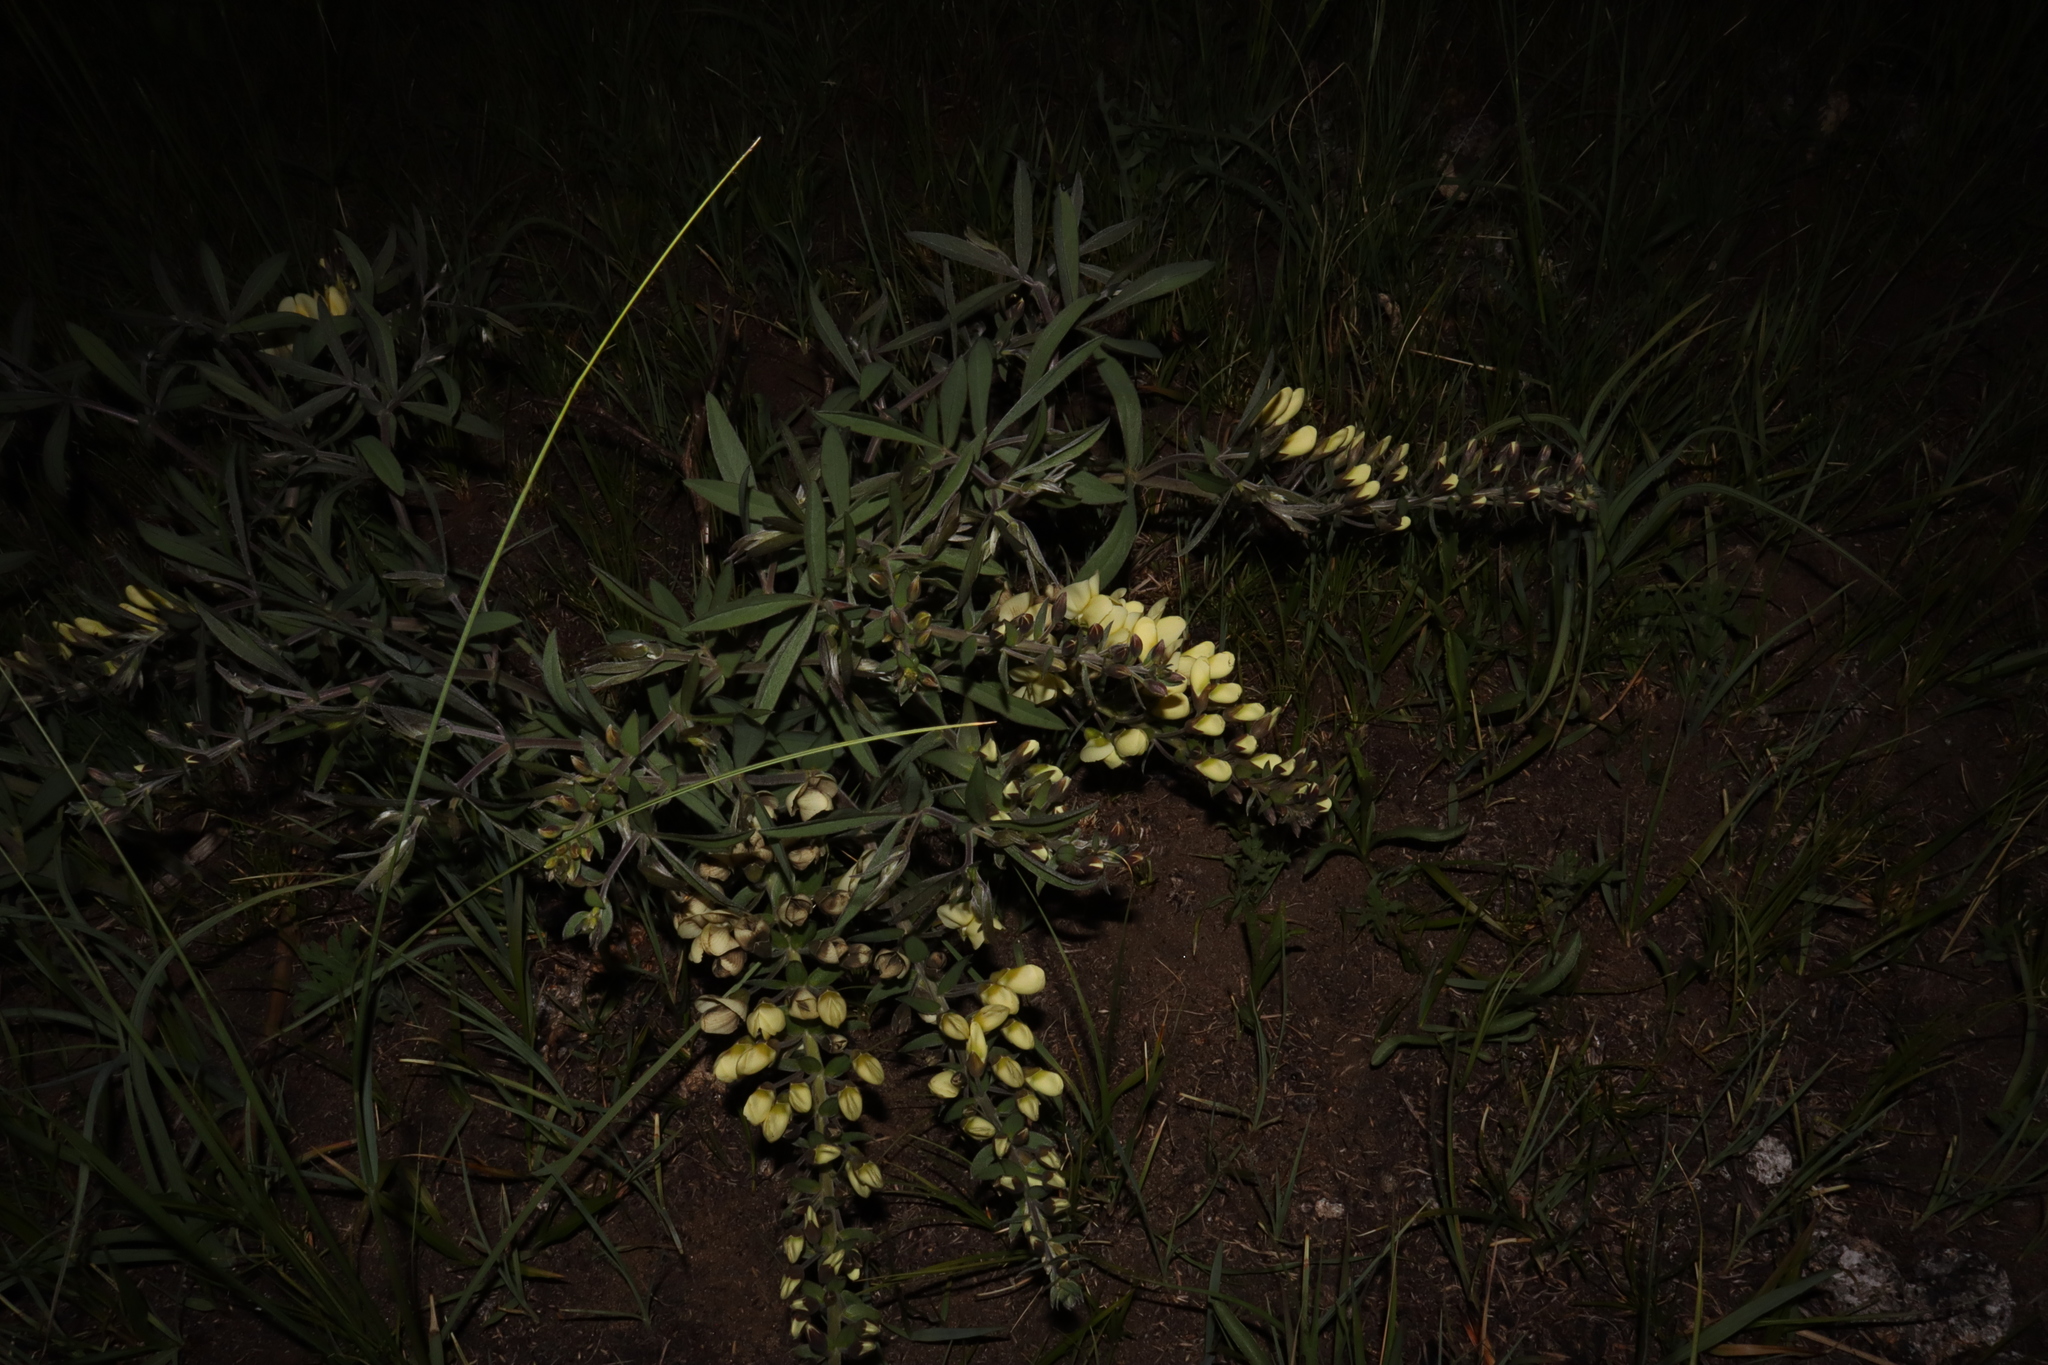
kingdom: Plantae
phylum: Tracheophyta
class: Magnoliopsida
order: Fabales
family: Fabaceae
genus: Baptisia
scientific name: Baptisia bracteata
